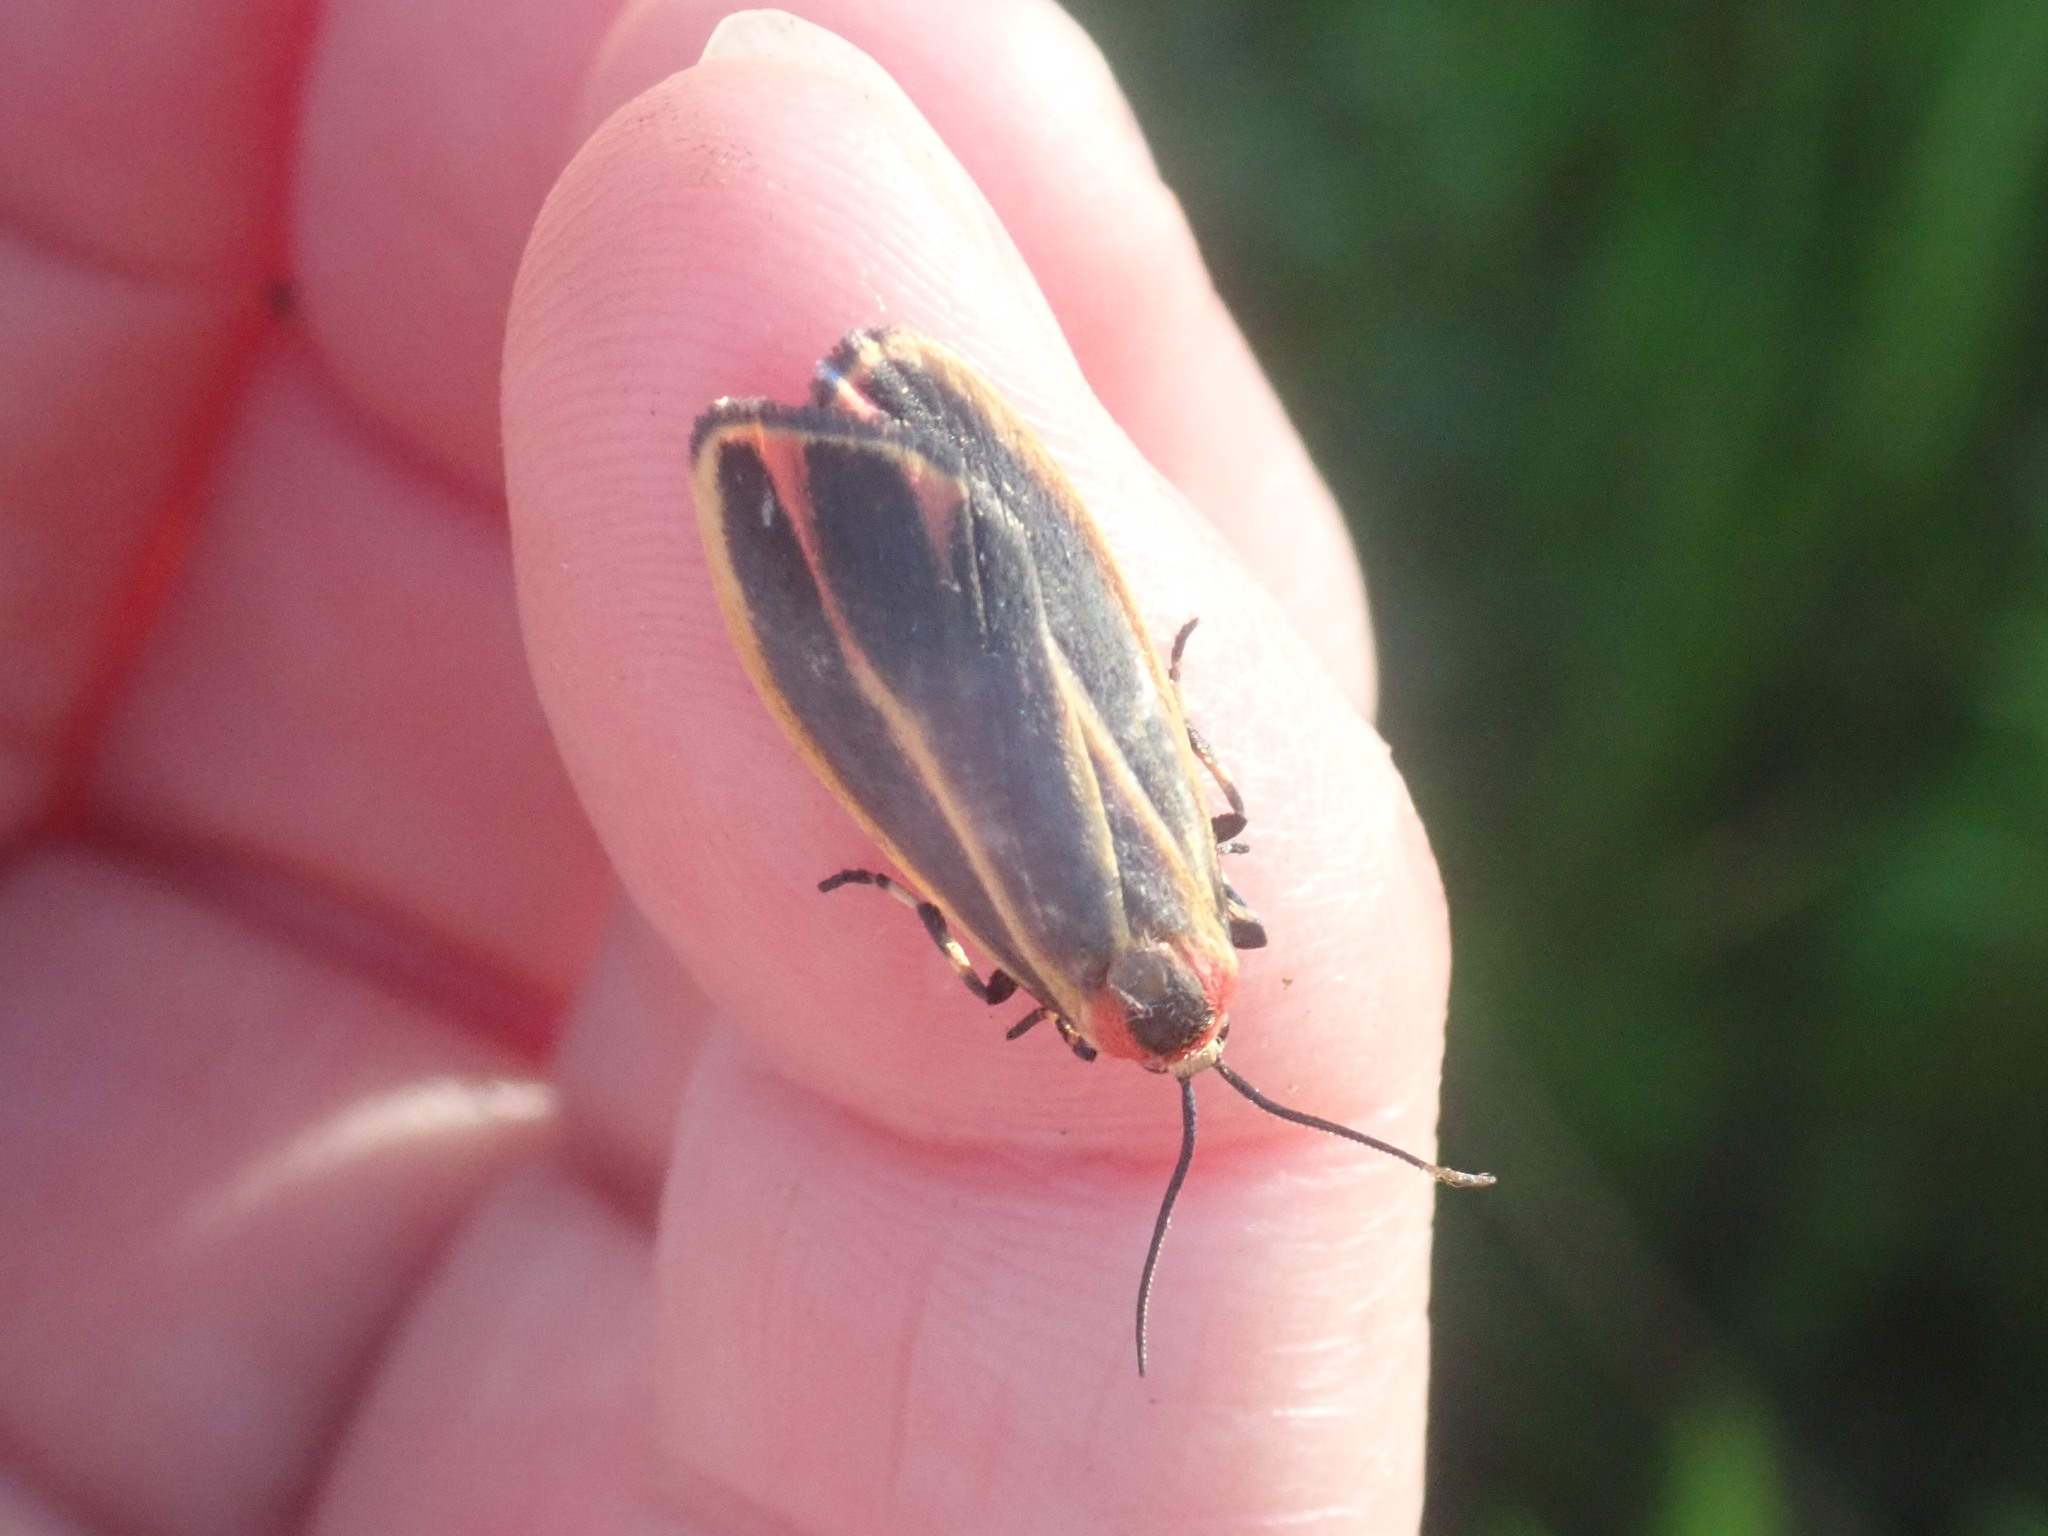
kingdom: Animalia
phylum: Arthropoda
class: Insecta
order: Lepidoptera
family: Erebidae
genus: Hypoprepia
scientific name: Hypoprepia fucosa
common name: Painted lichen moth
